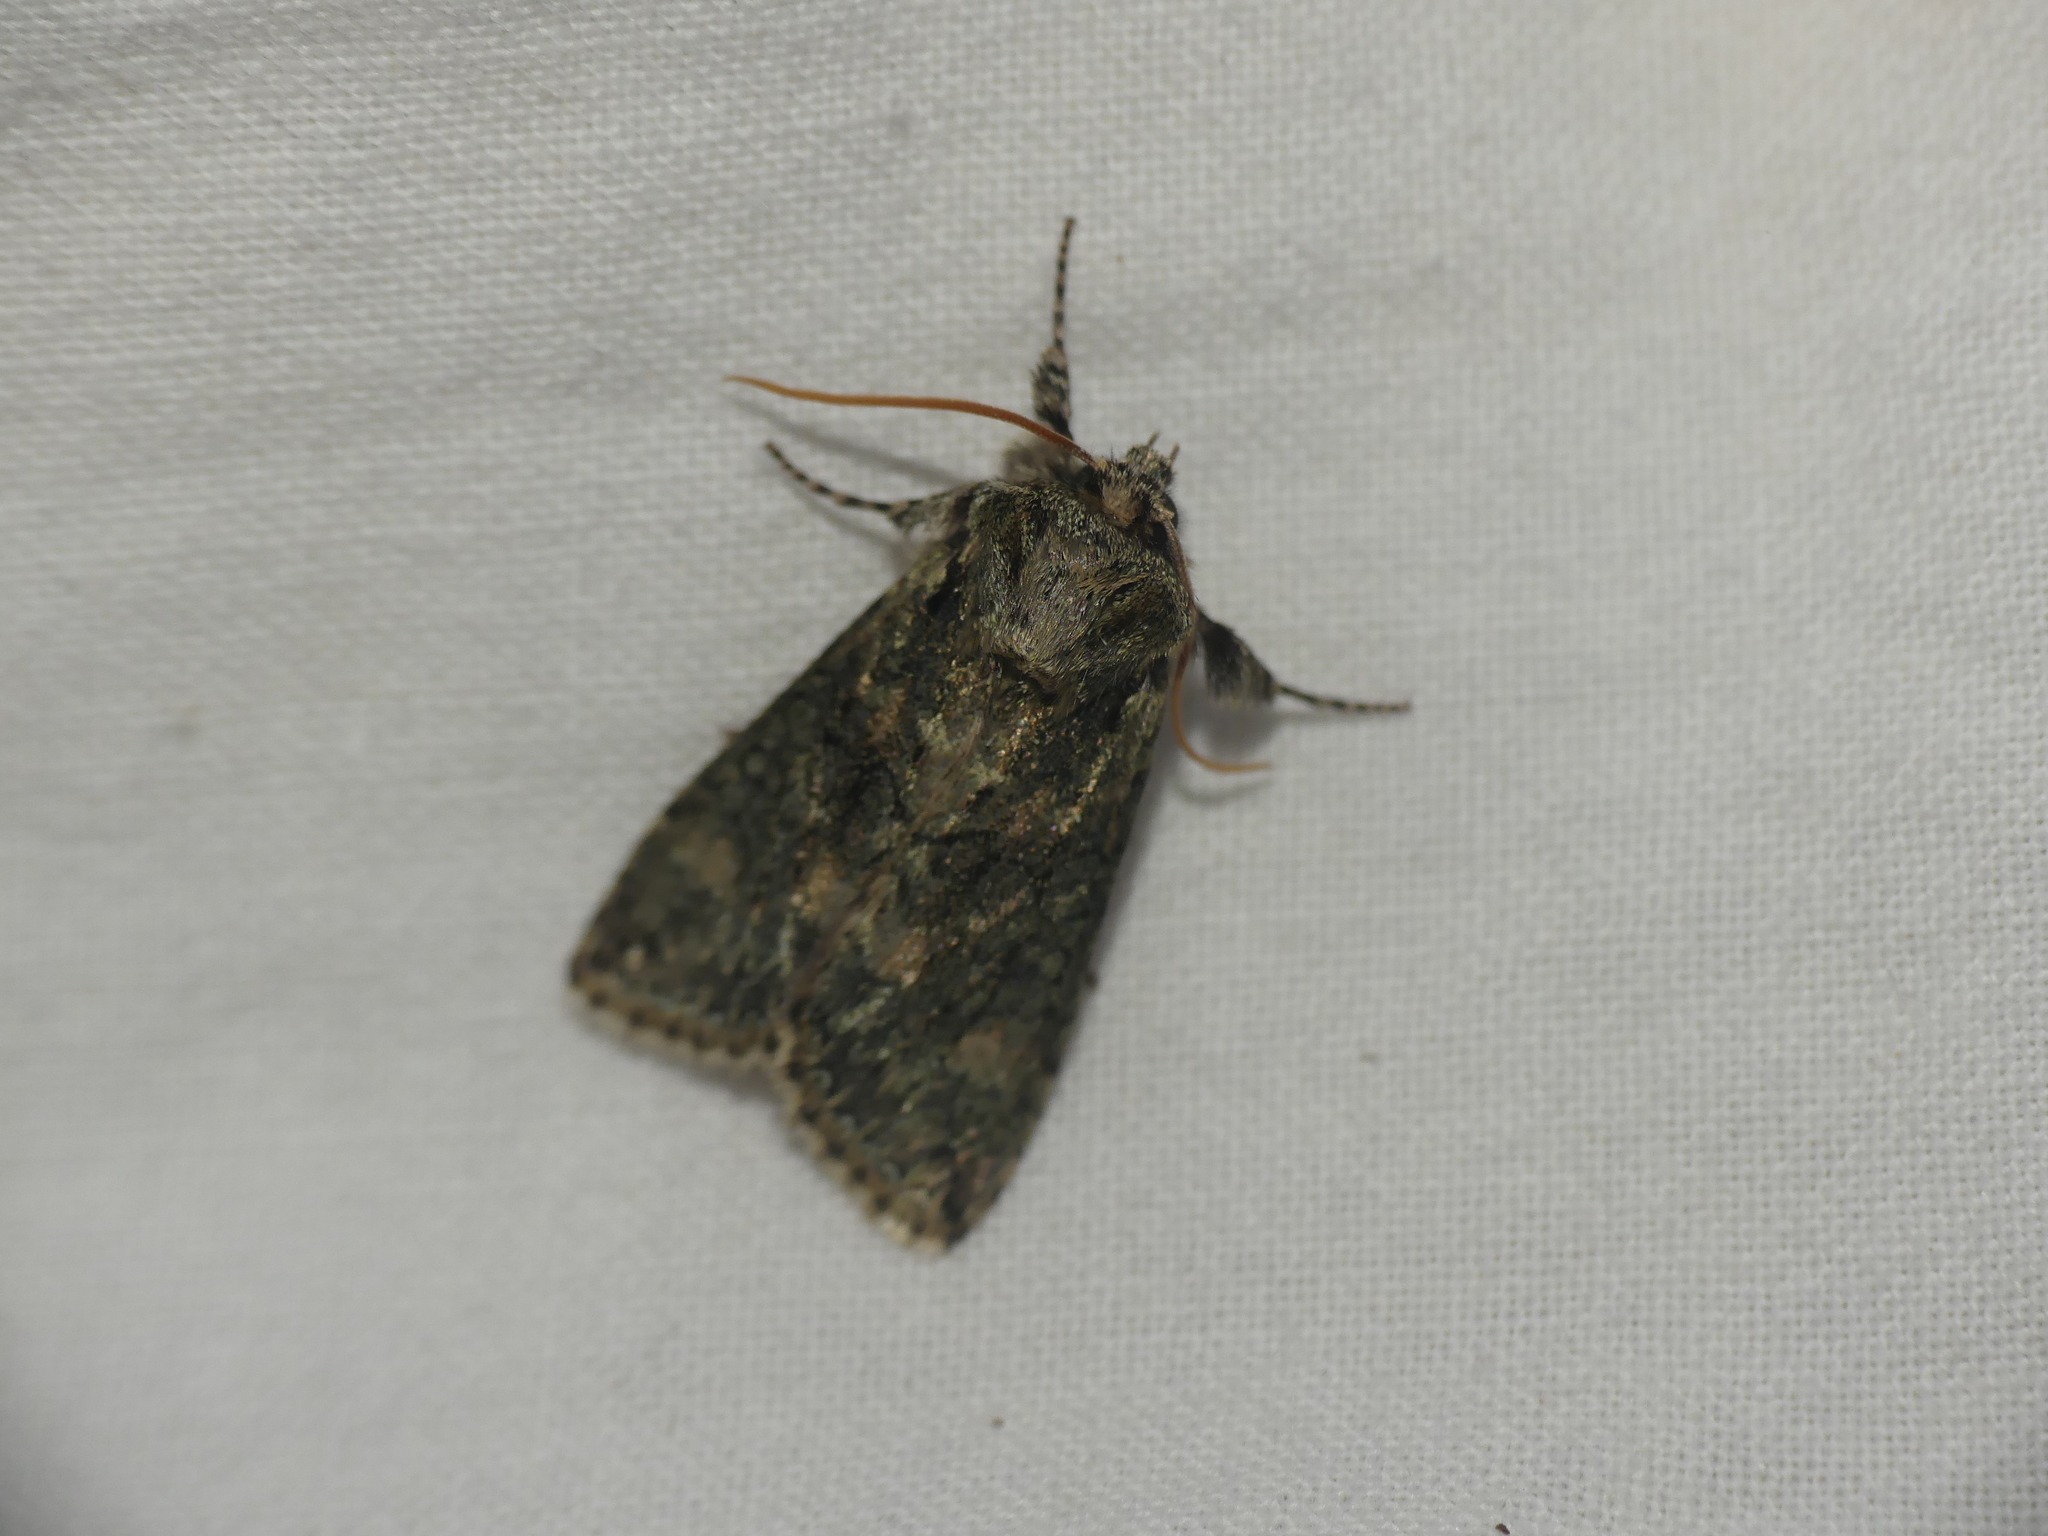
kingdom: Animalia
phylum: Arthropoda
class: Insecta
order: Lepidoptera
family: Drepanidae
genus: Polyploca
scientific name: Polyploca ridens
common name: Frosted green
